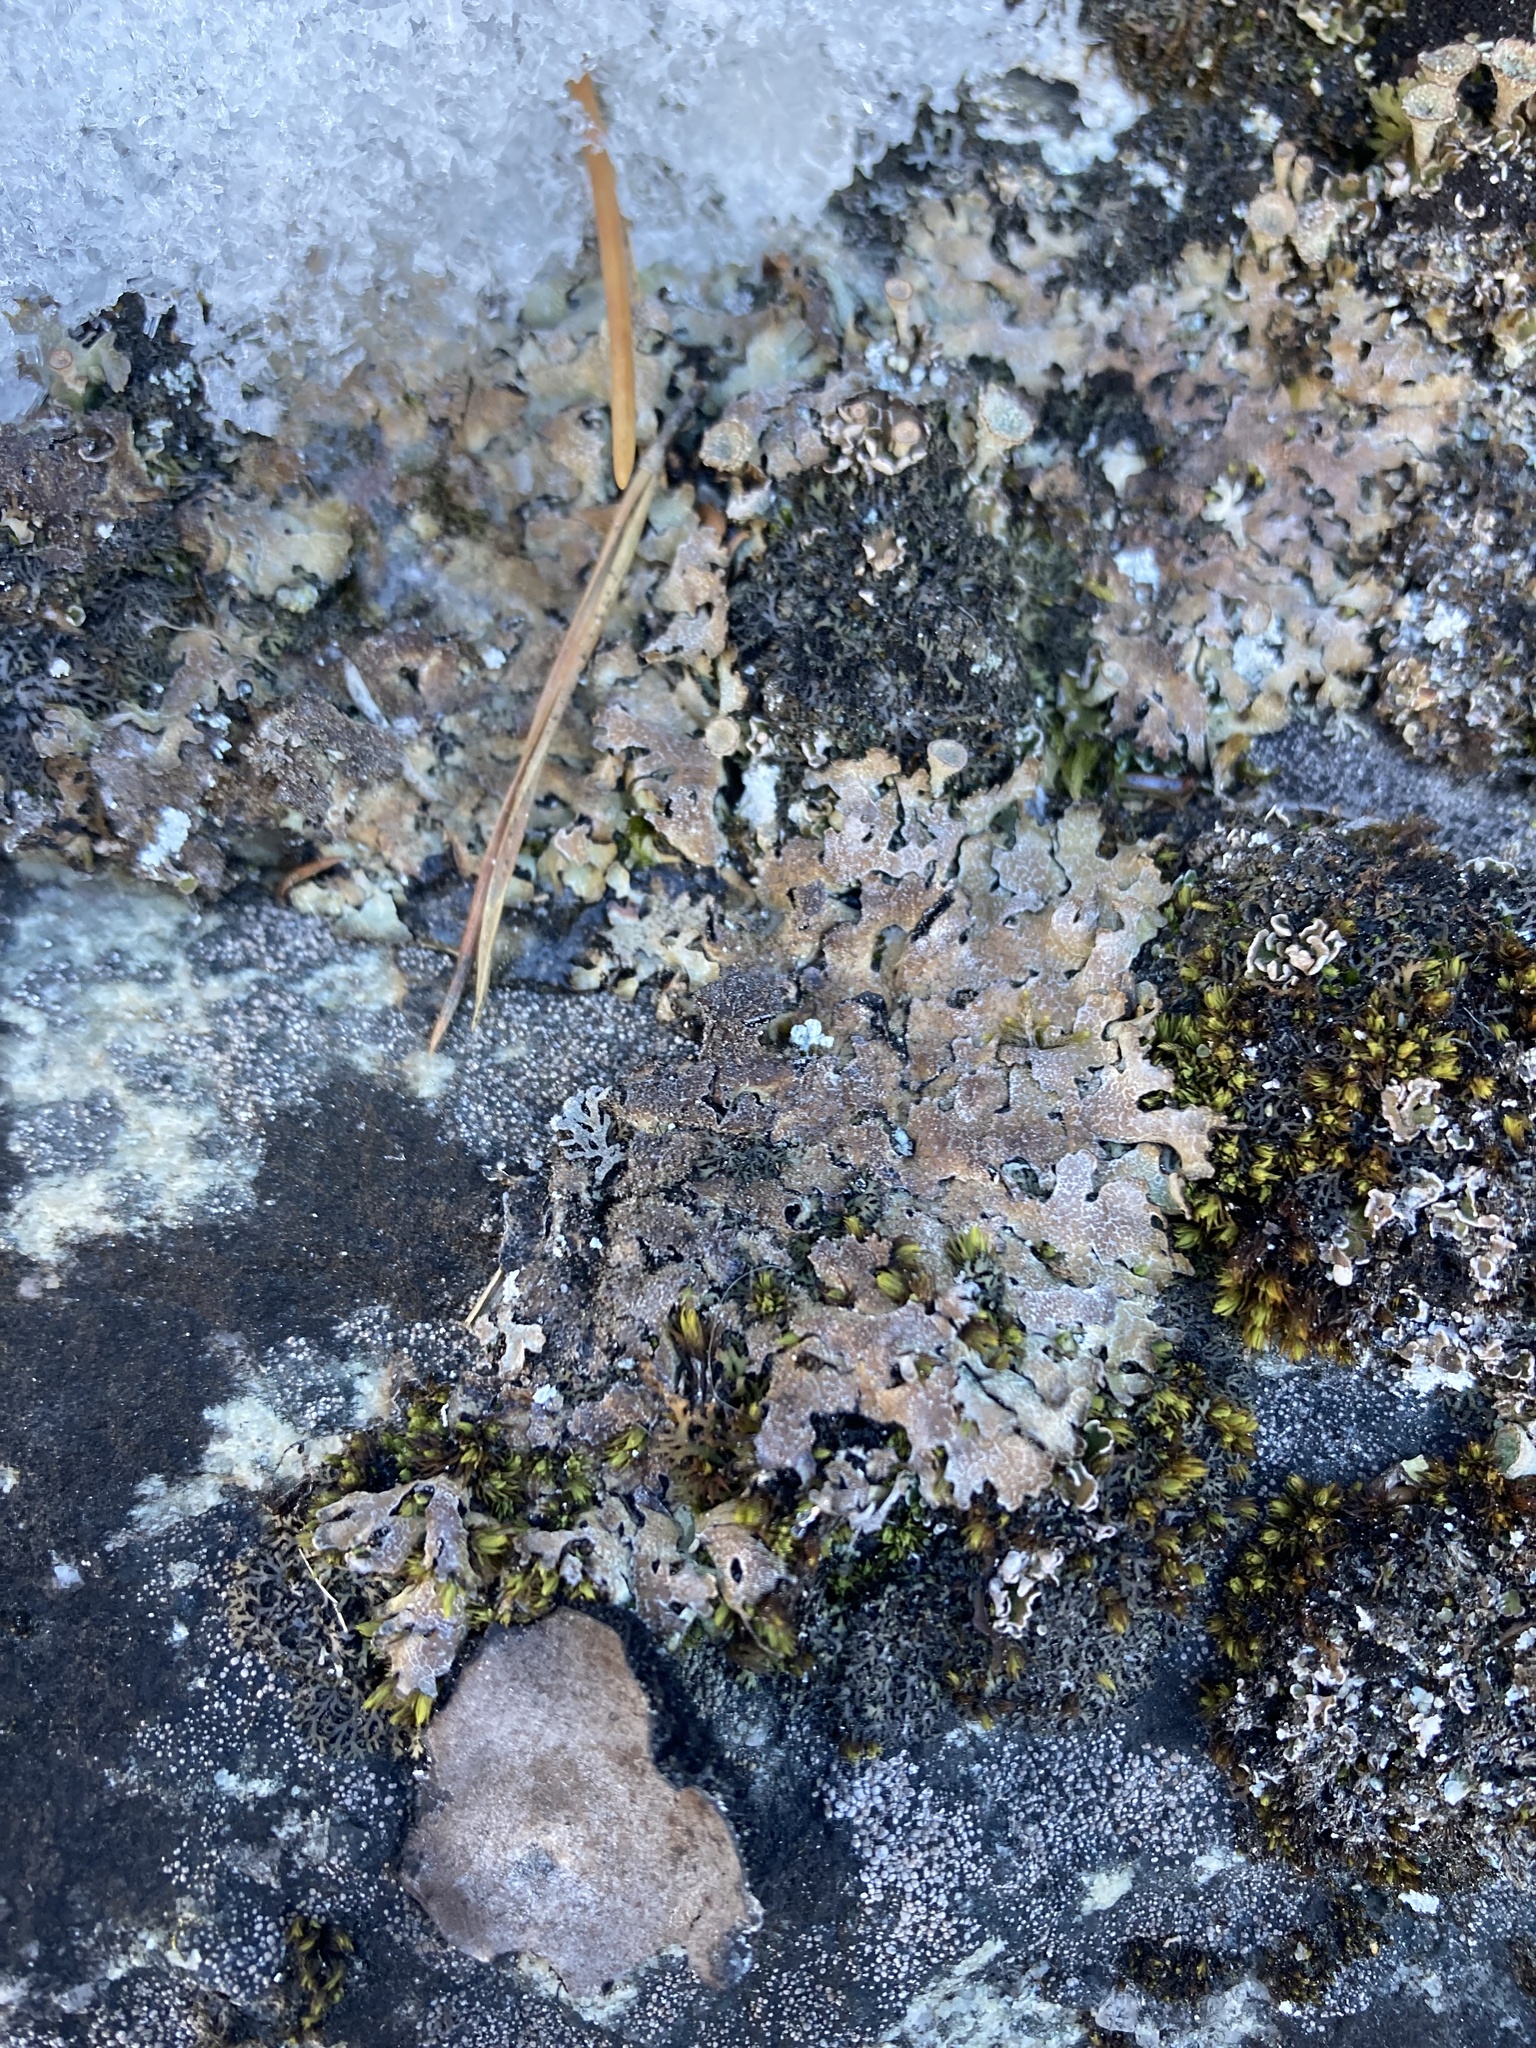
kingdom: Fungi
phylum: Ascomycota
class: Lecanoromycetes
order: Lecanorales
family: Parmeliaceae
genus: Parmelia
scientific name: Parmelia saxatilis
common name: Salted shield lichen
